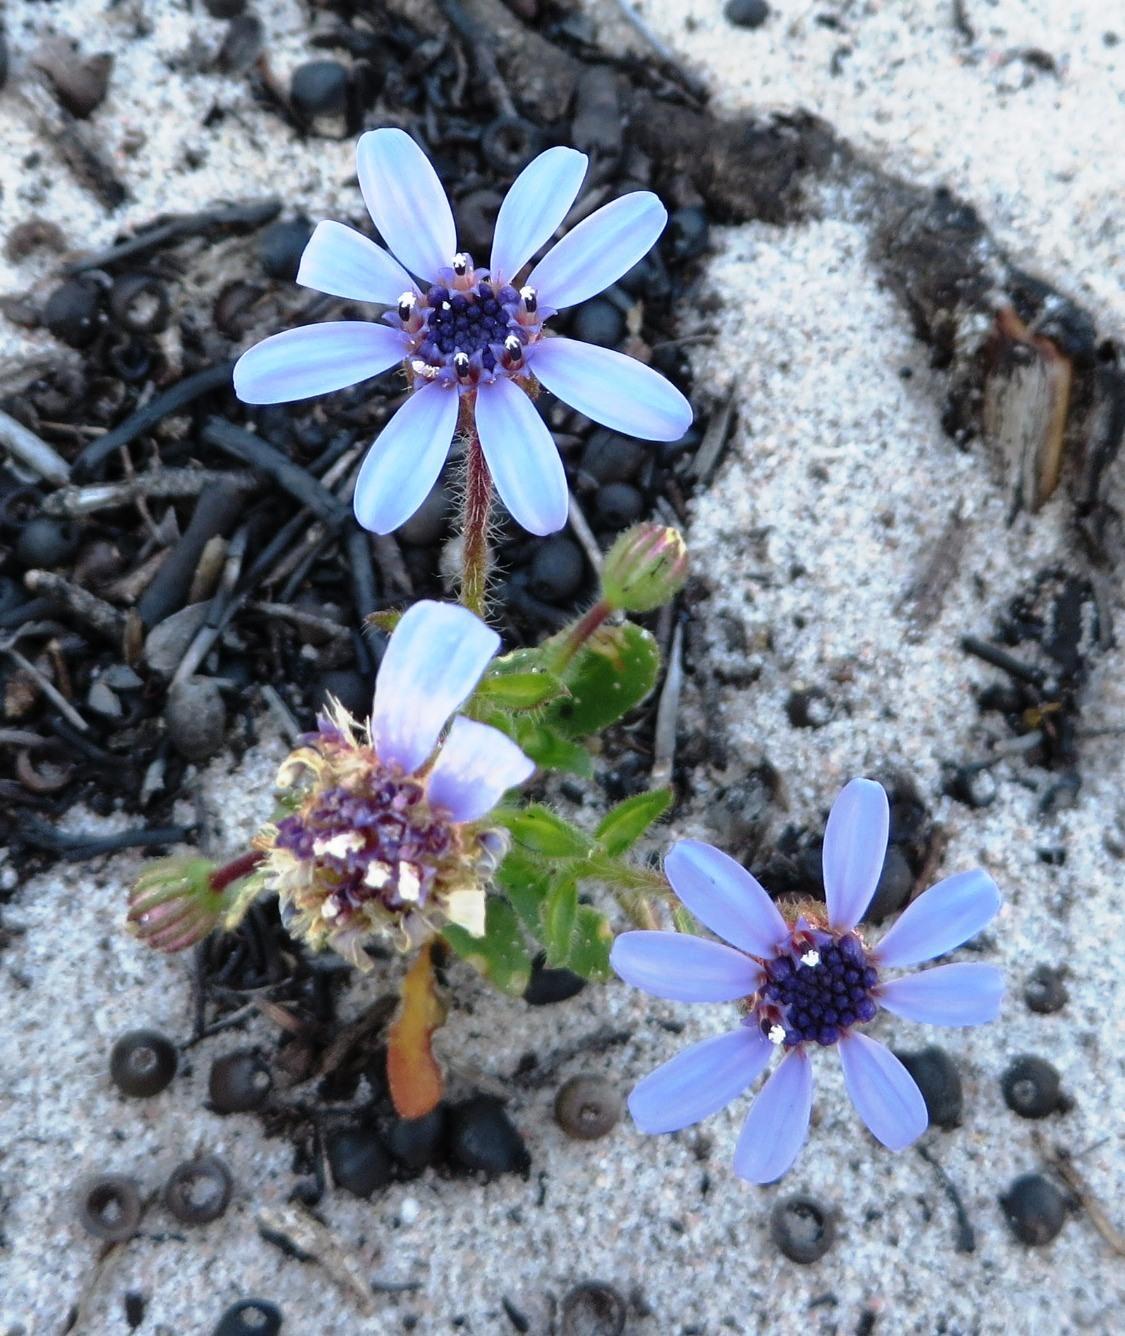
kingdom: Plantae
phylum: Tracheophyta
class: Magnoliopsida
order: Asterales
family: Asteraceae
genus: Felicia
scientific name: Felicia heterophylla
